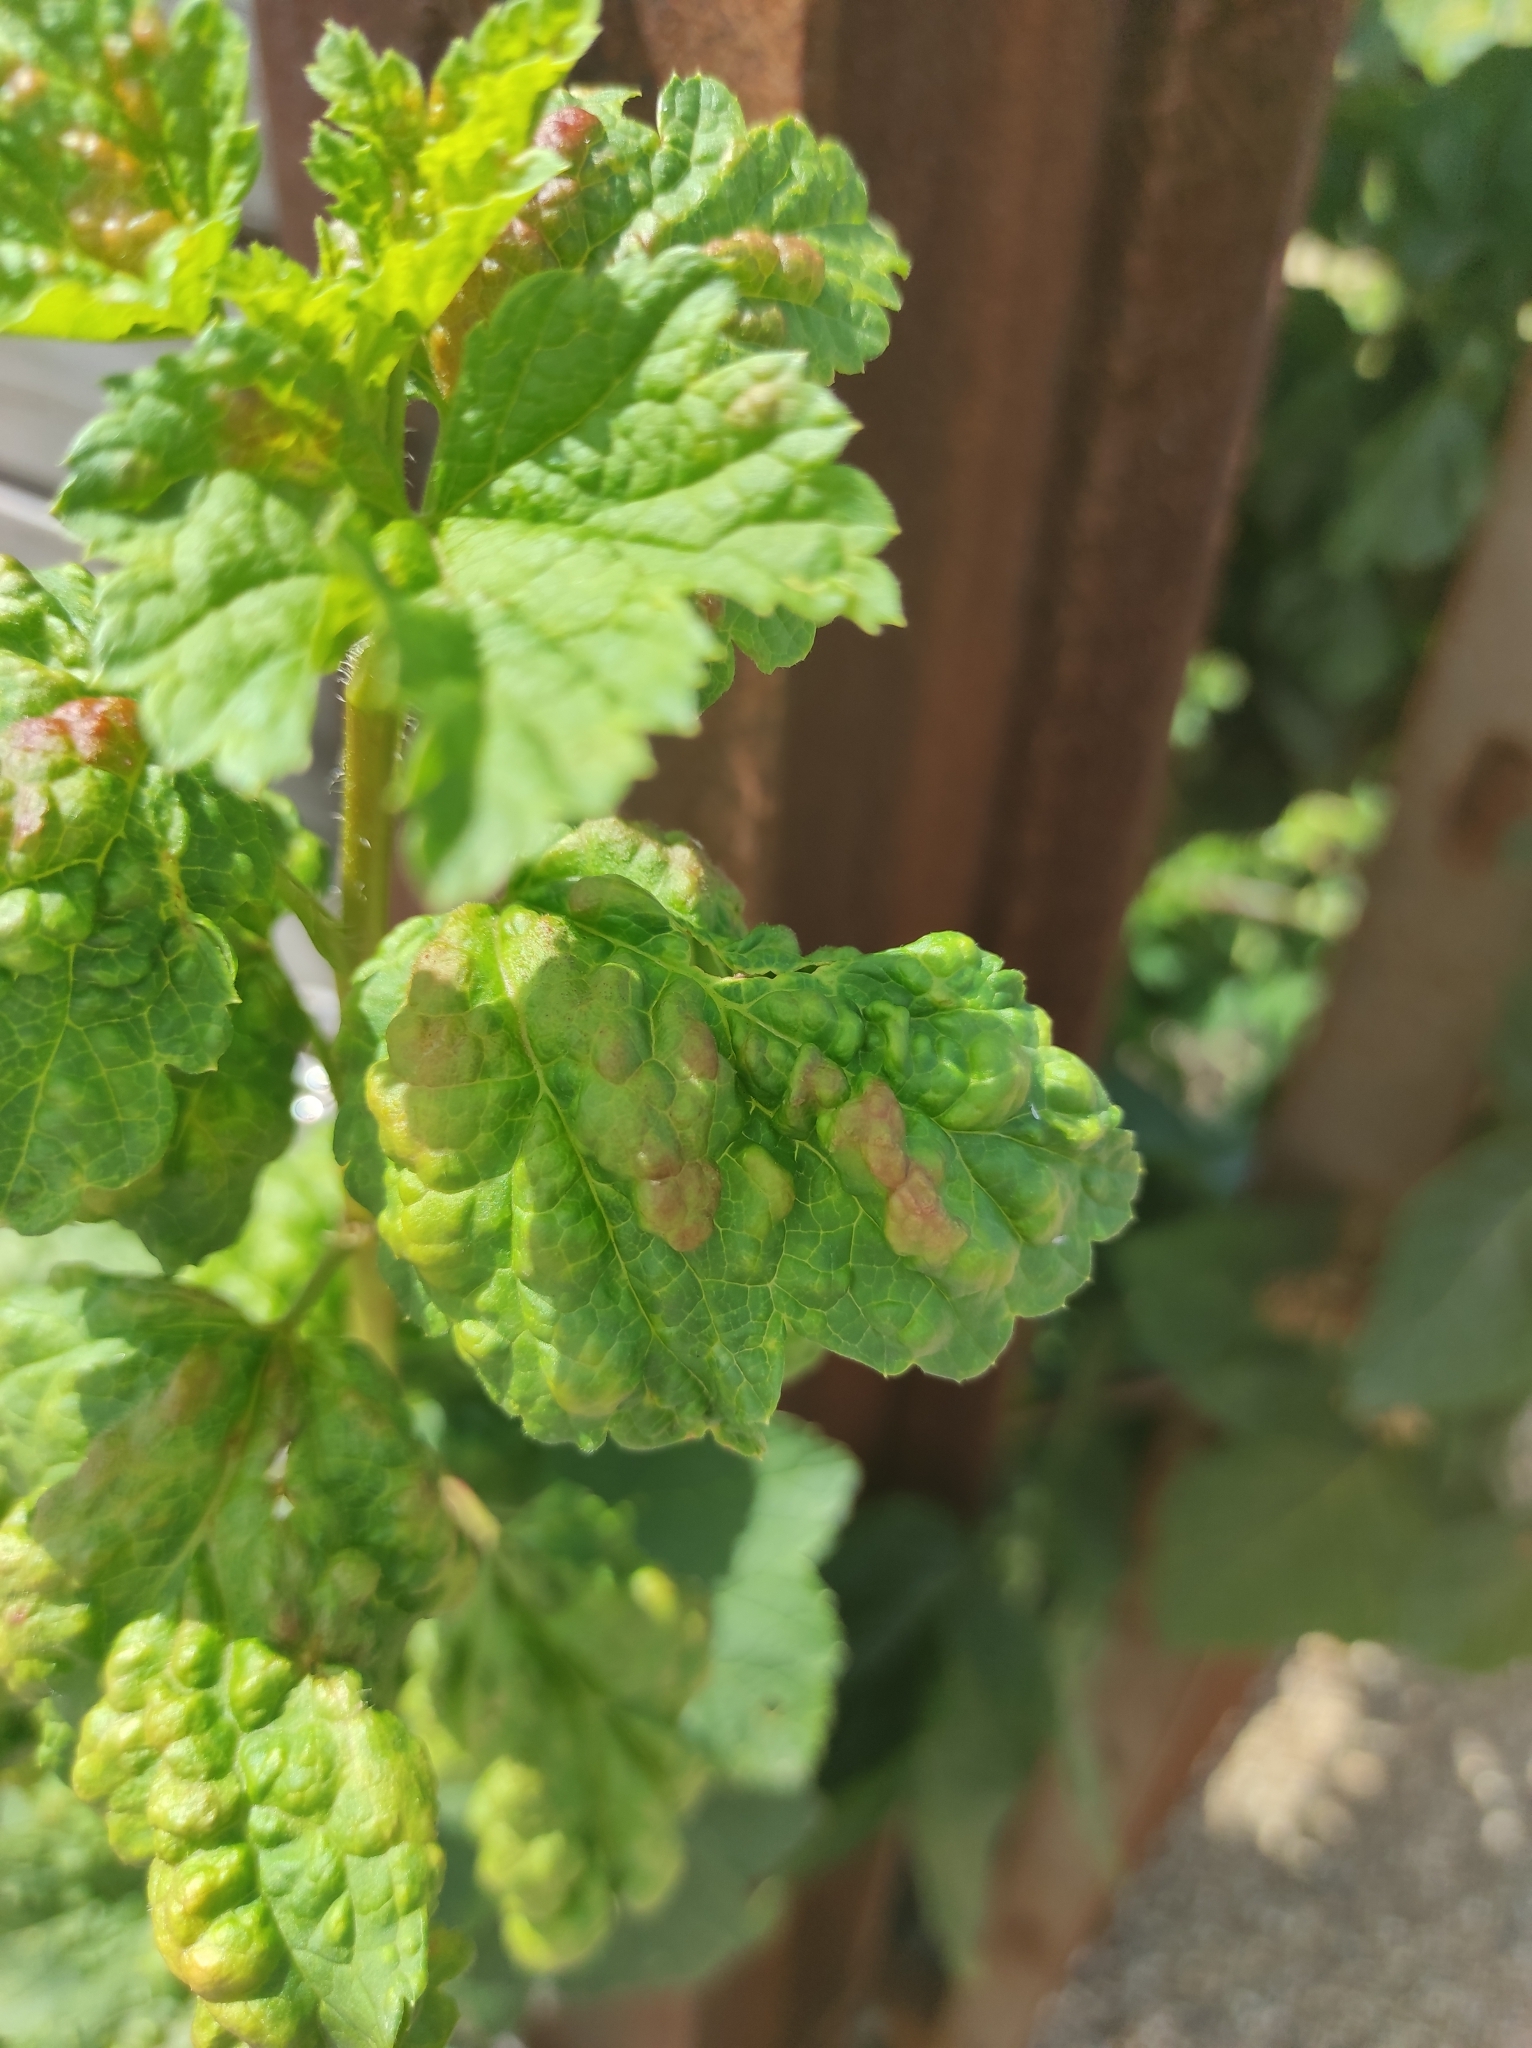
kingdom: Animalia
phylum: Arthropoda
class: Insecta
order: Hemiptera
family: Aphididae
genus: Cryptomyzus
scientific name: Cryptomyzus ribis
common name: Currant aphid
